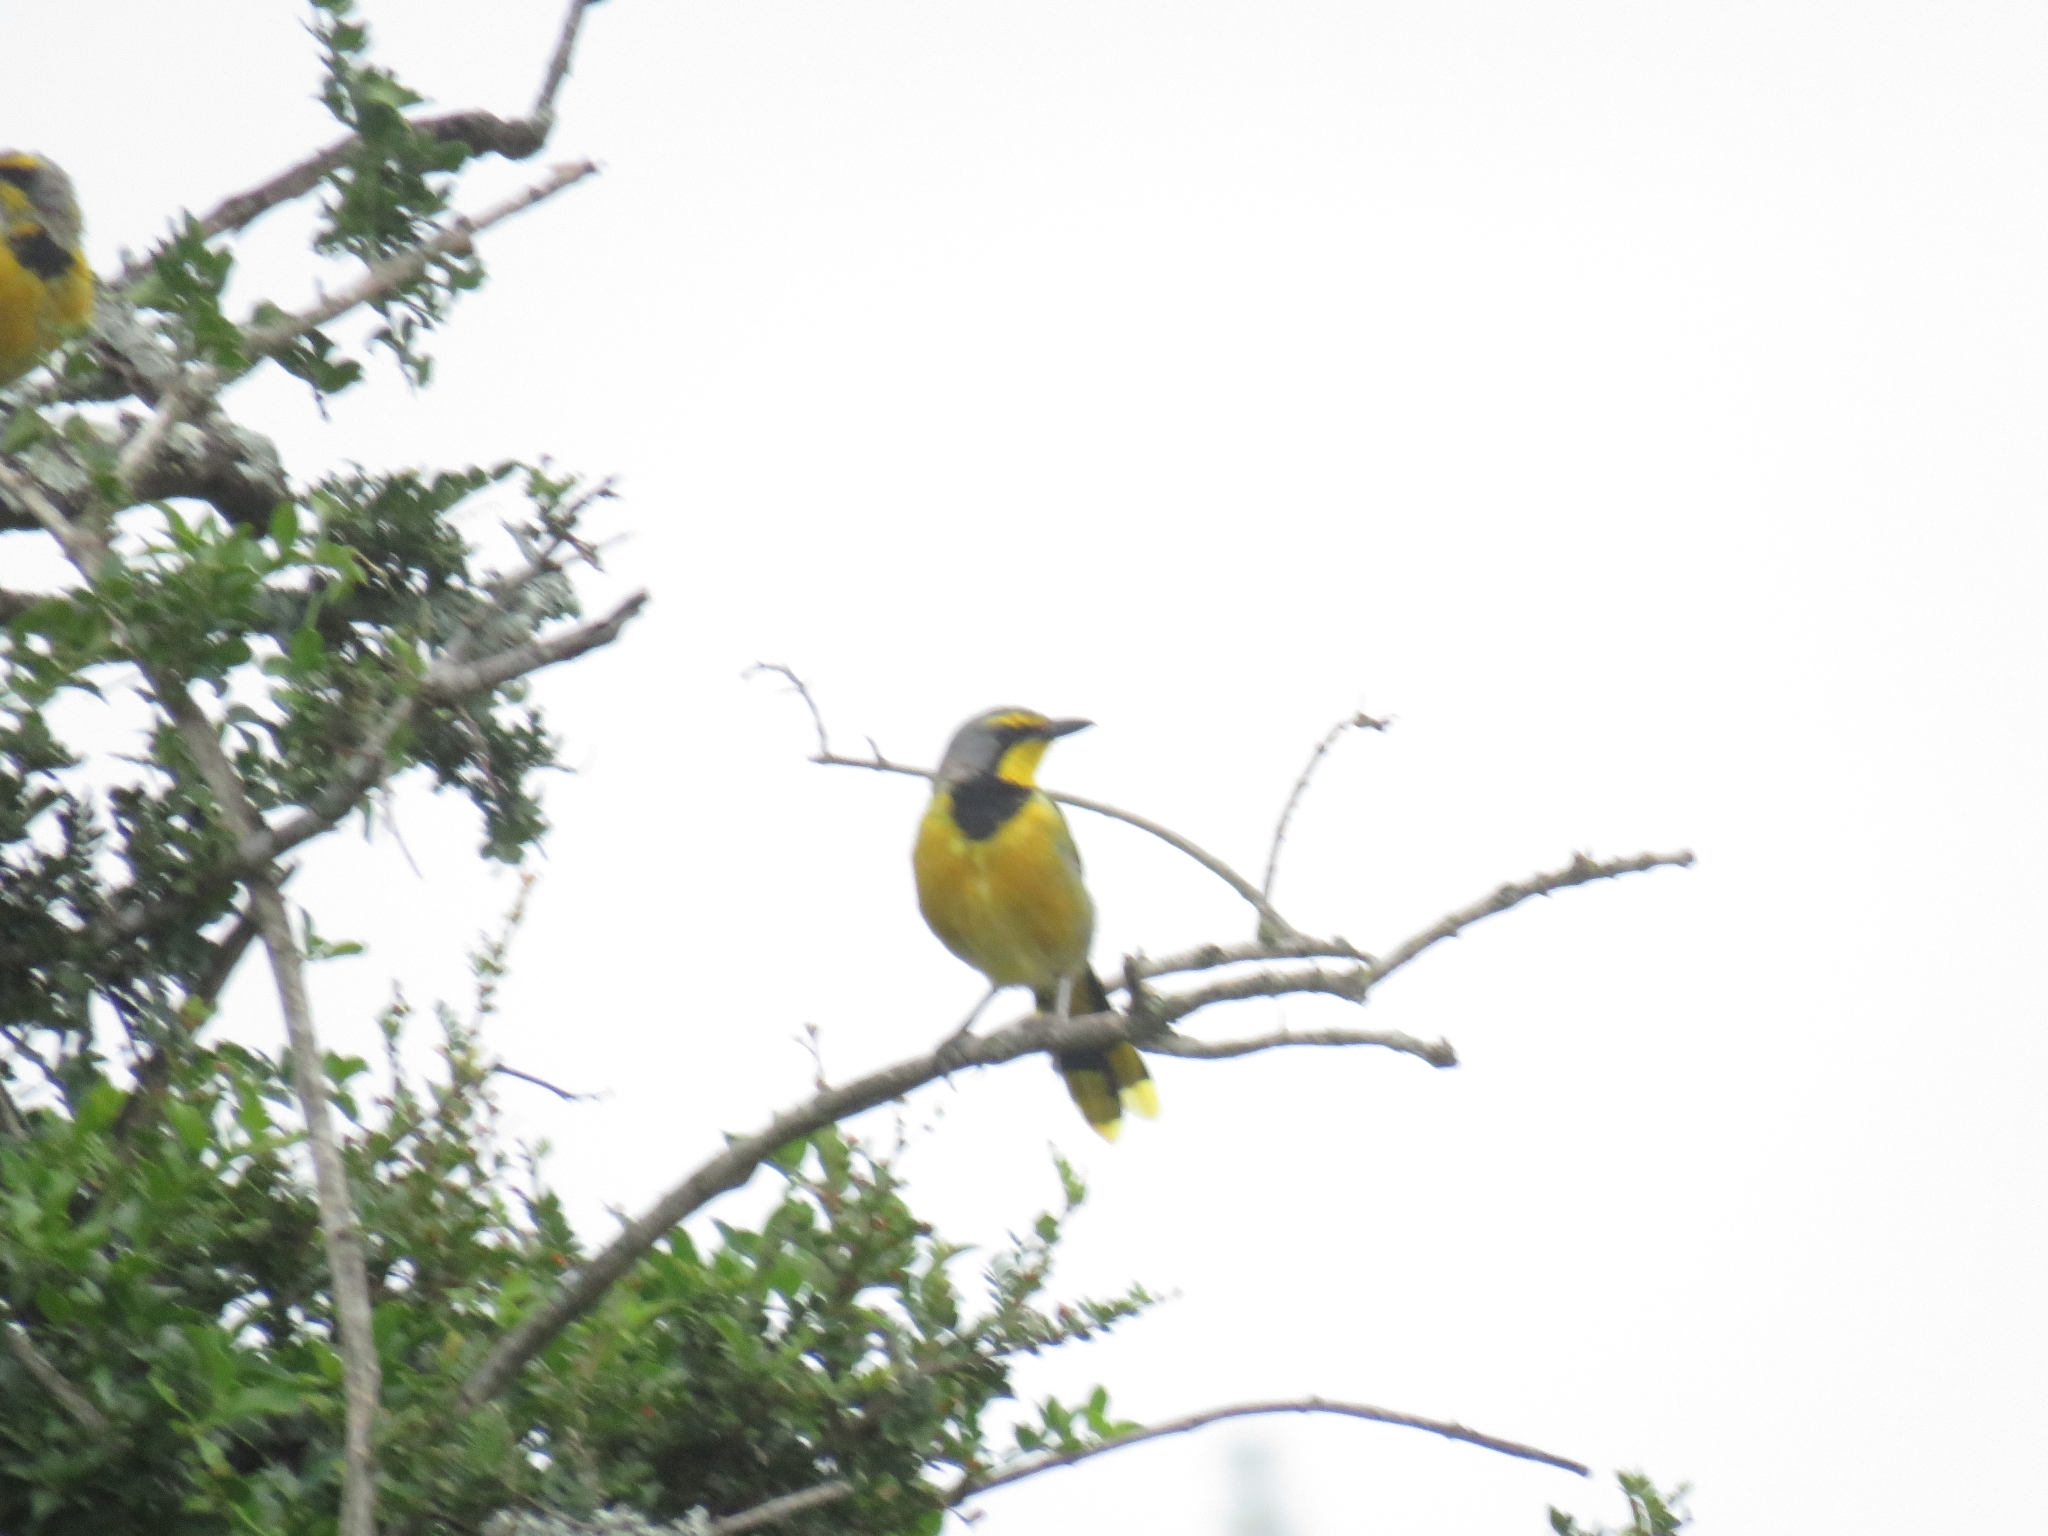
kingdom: Animalia
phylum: Chordata
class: Aves
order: Passeriformes
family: Malaconotidae
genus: Telophorus
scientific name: Telophorus zeylonus
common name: Bokmakierie
